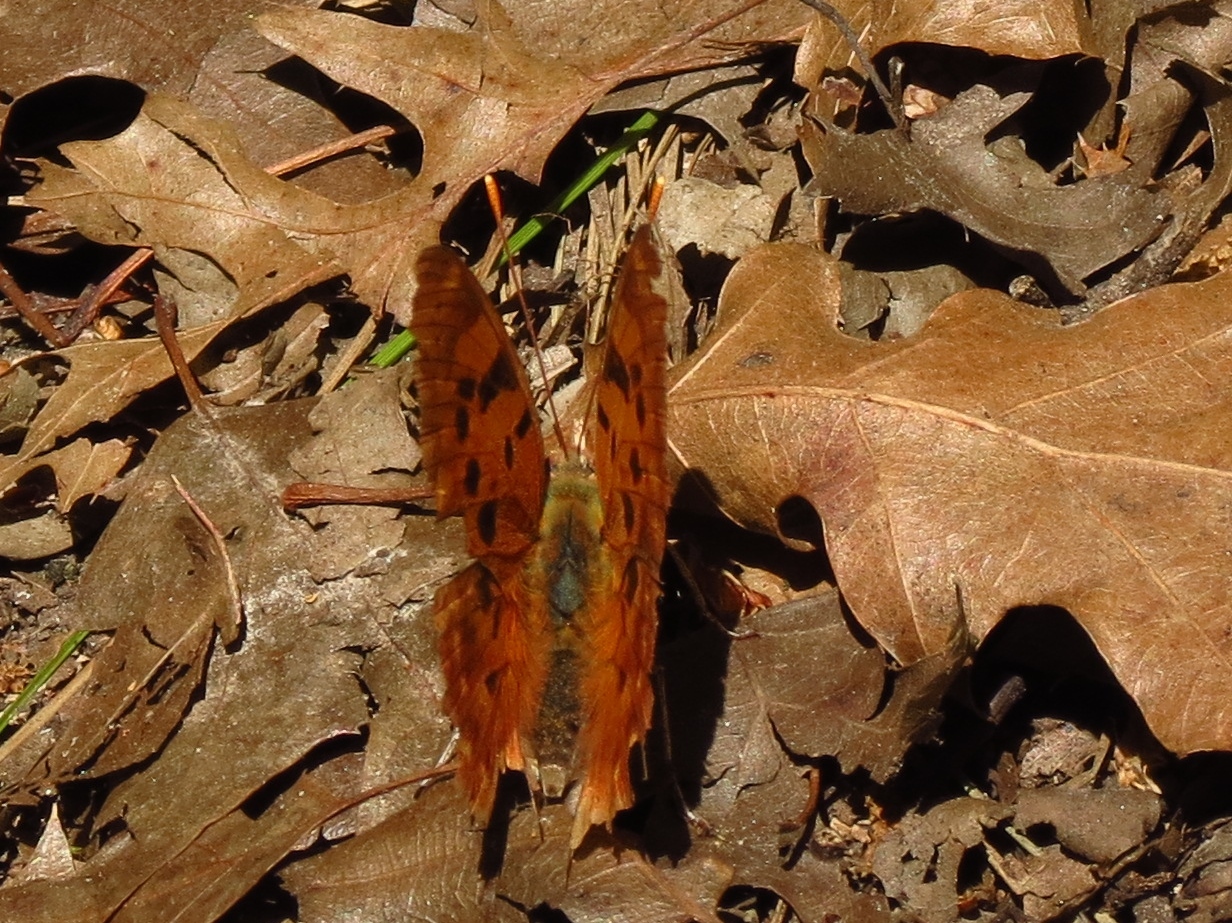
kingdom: Animalia
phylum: Arthropoda
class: Insecta
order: Lepidoptera
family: Nymphalidae
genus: Polygonia
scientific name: Polygonia interrogationis
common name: Question mark
